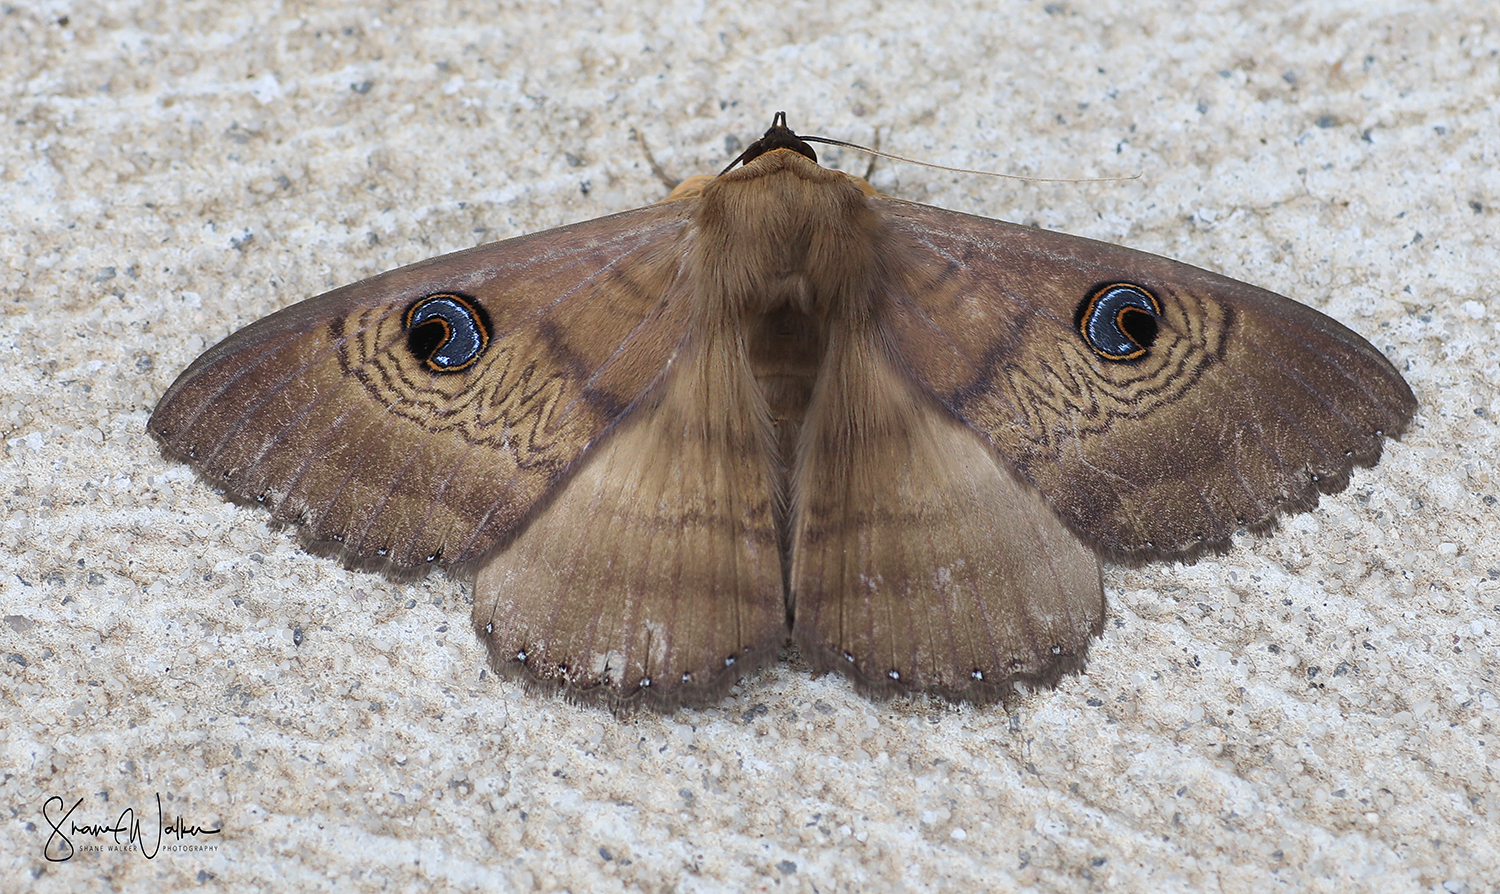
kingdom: Animalia
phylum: Arthropoda
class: Insecta
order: Lepidoptera
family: Erebidae
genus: Dasypodia
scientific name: Dasypodia selenophora
